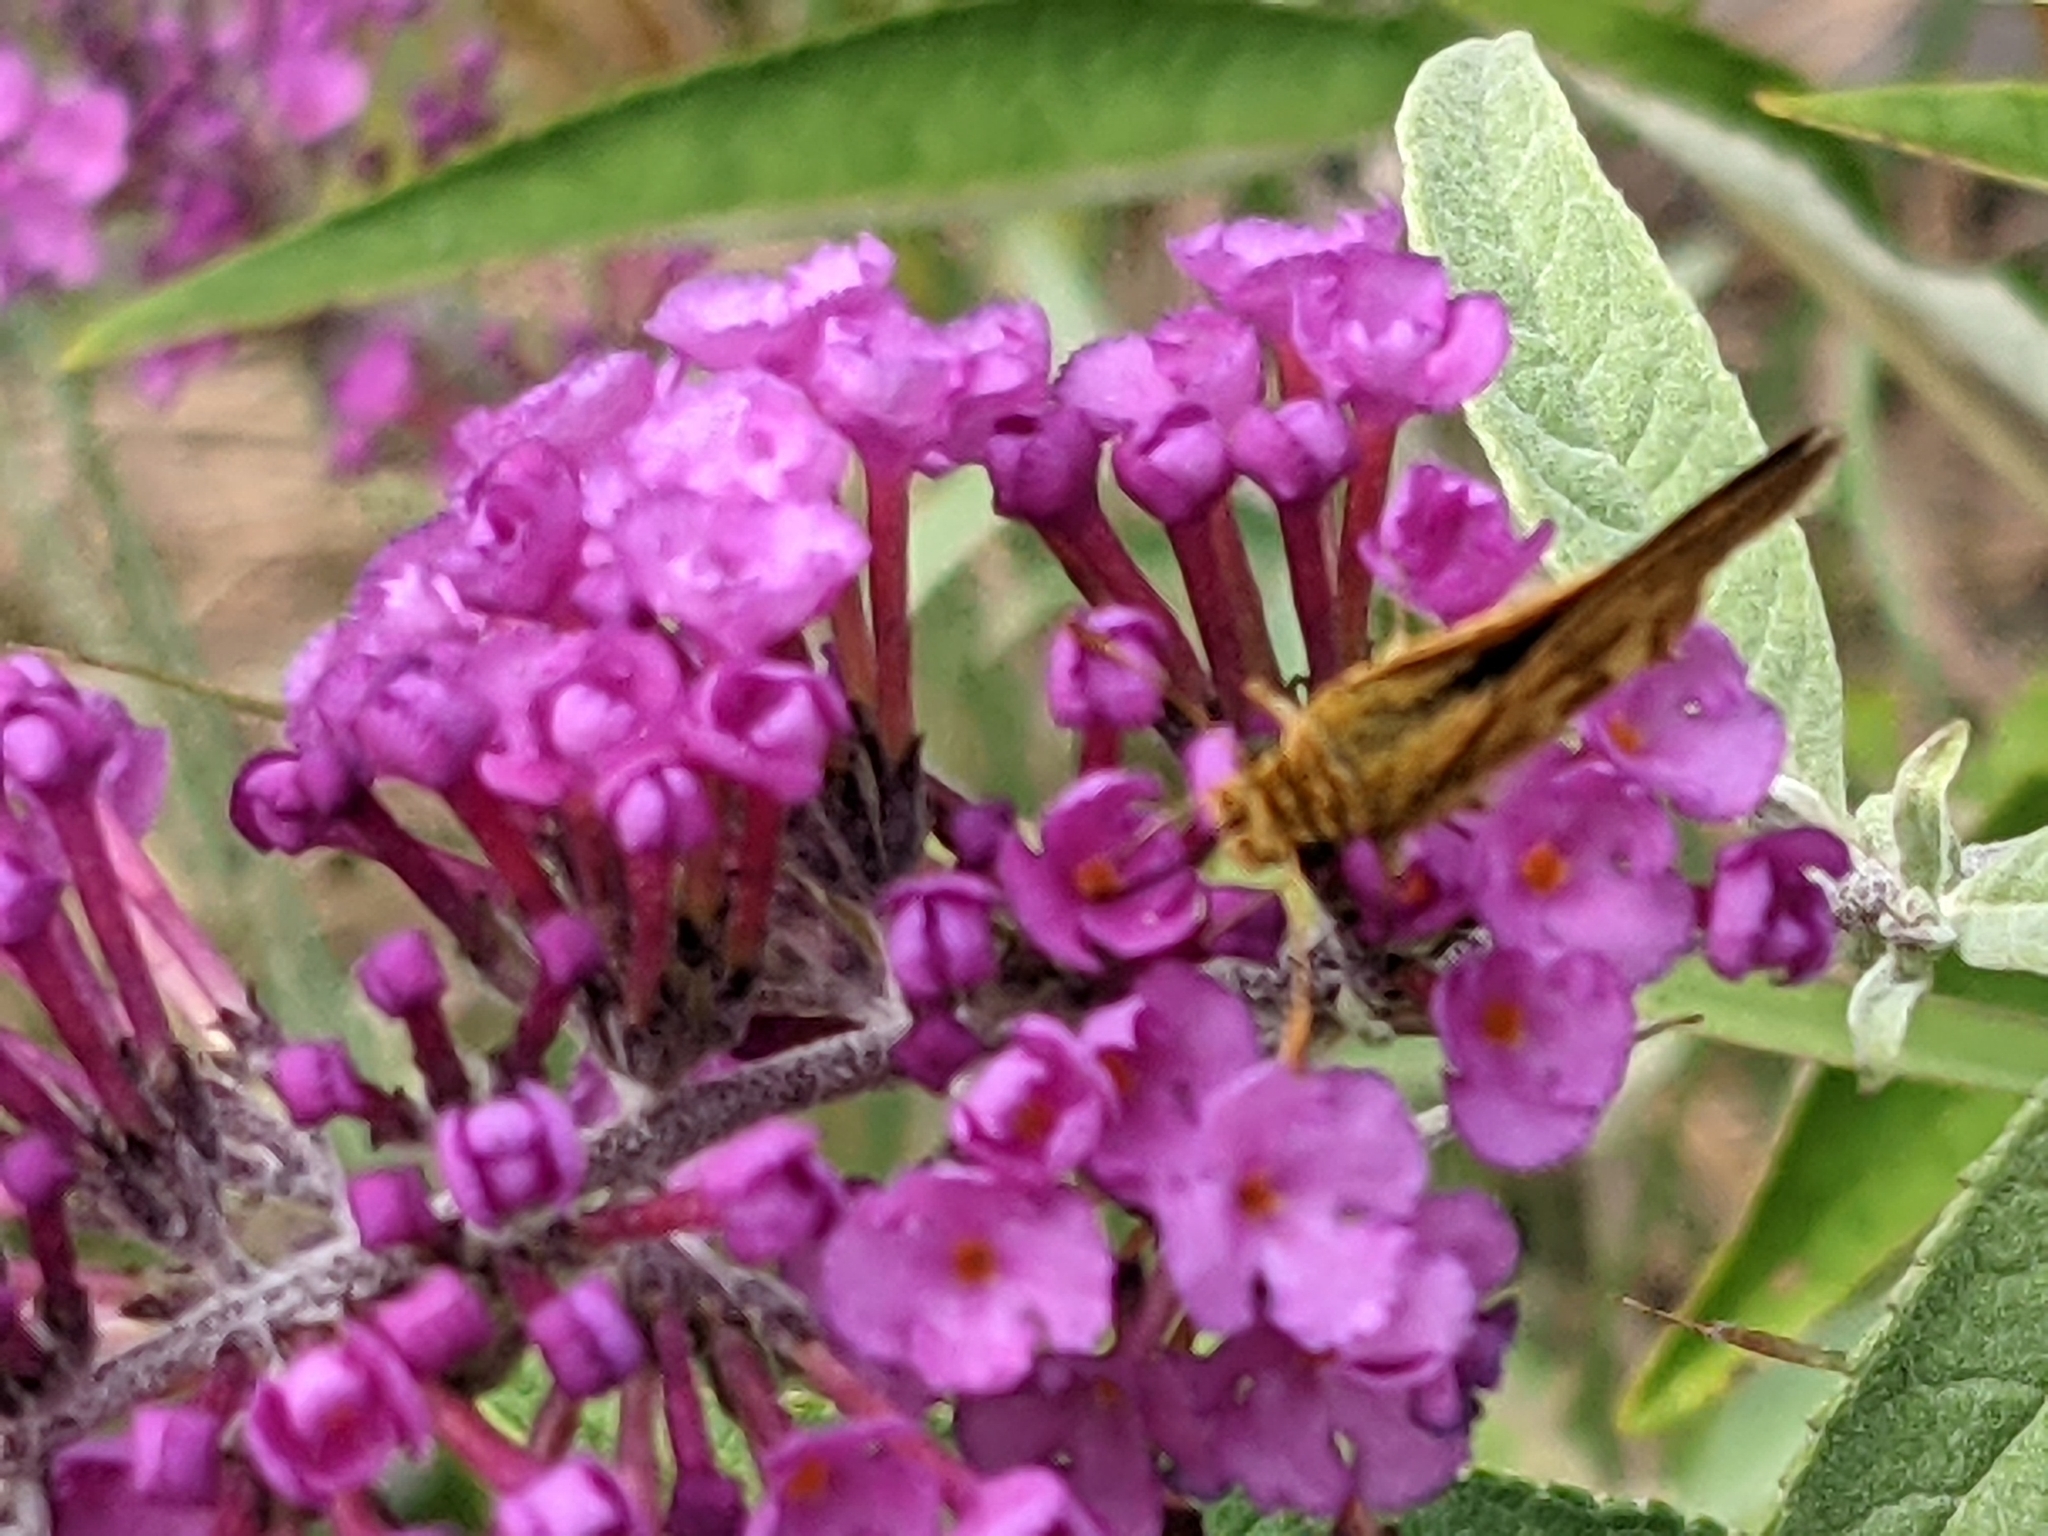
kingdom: Animalia
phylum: Arthropoda
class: Insecta
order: Lepidoptera
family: Hesperiidae
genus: Polites
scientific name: Polites coras
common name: Peck's skipper
